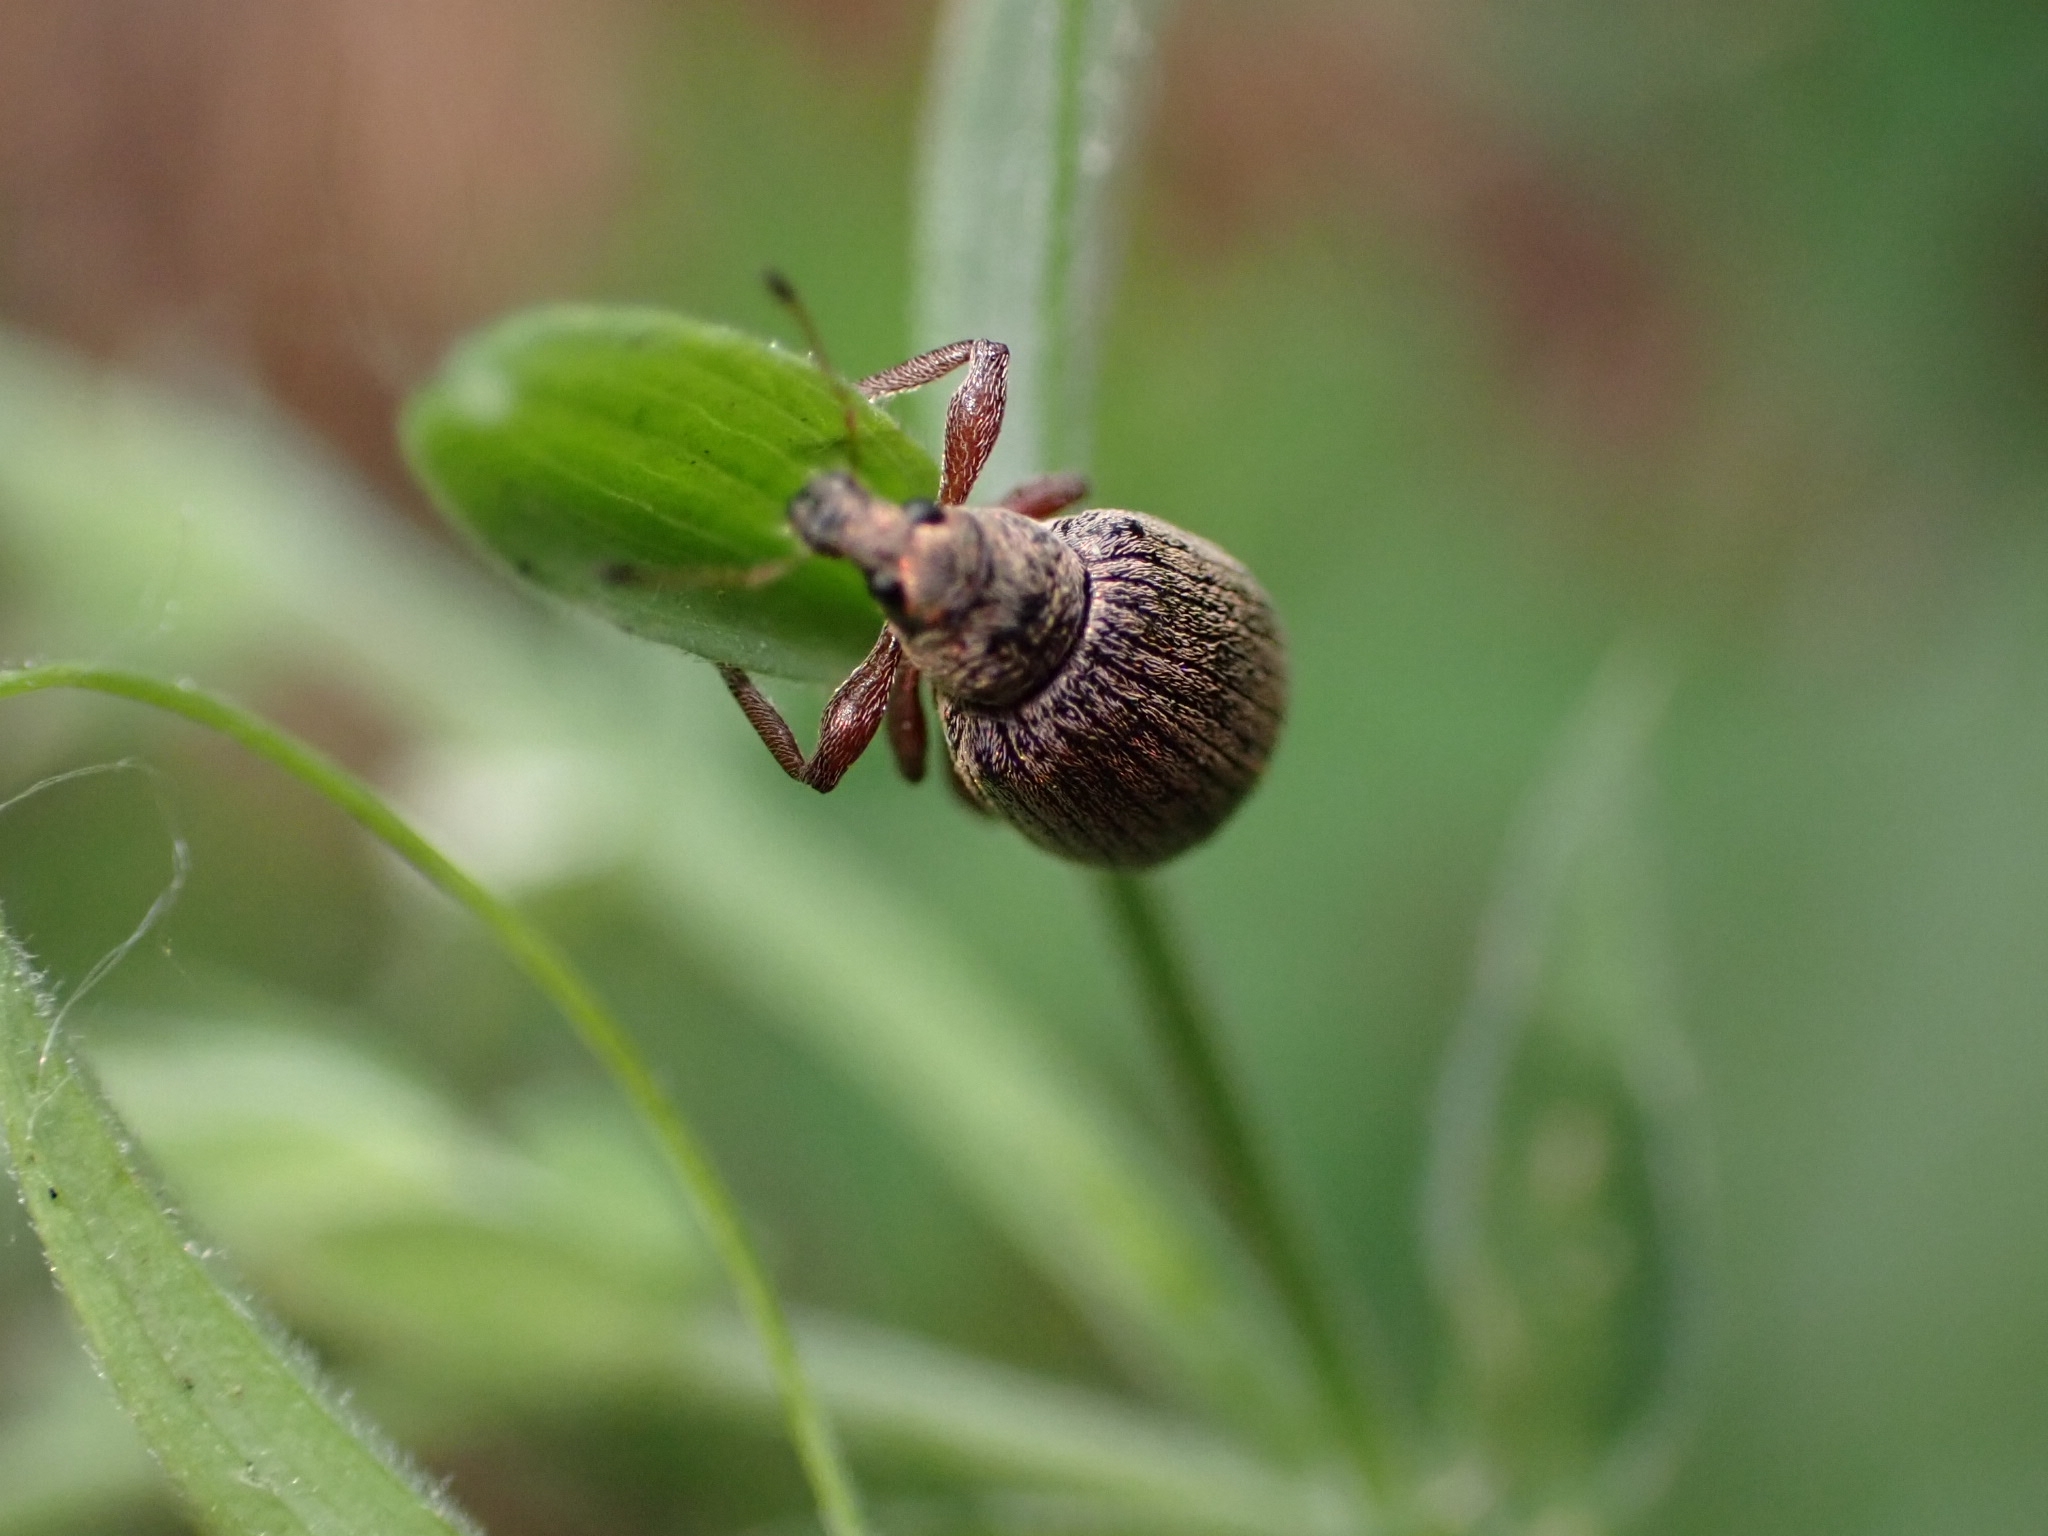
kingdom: Animalia
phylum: Arthropoda
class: Insecta
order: Coleoptera
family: Curculionidae
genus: Polydrusus
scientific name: Polydrusus mollis
